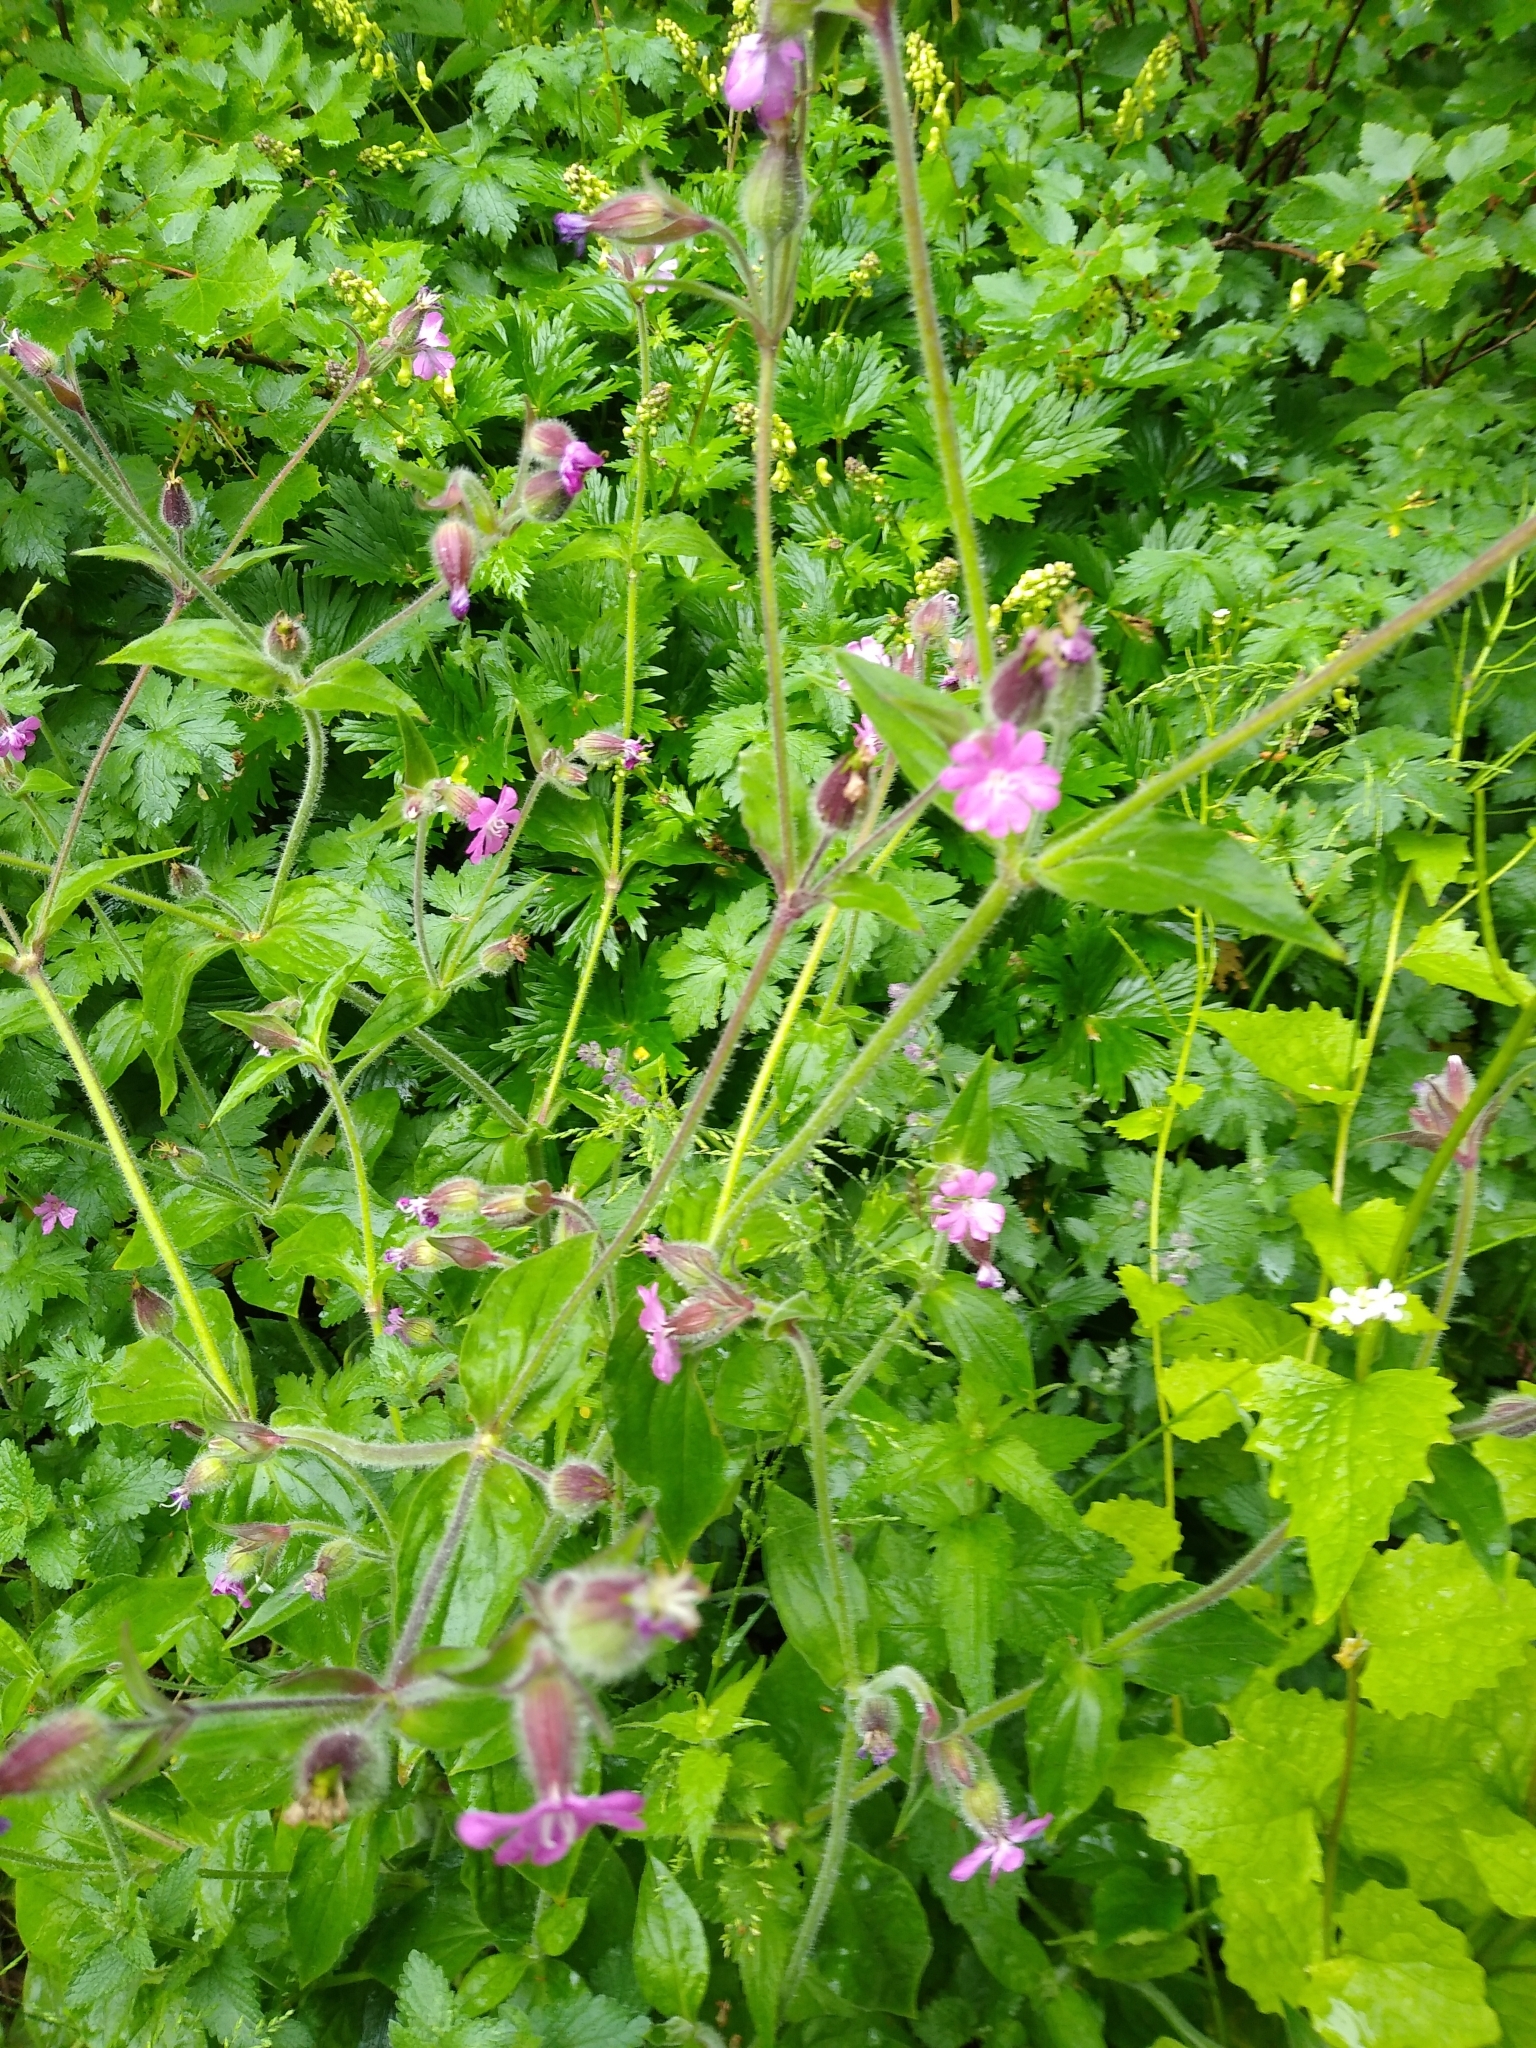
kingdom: Plantae
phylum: Tracheophyta
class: Magnoliopsida
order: Caryophyllales
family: Caryophyllaceae
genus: Silene
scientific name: Silene dioica
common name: Red campion
